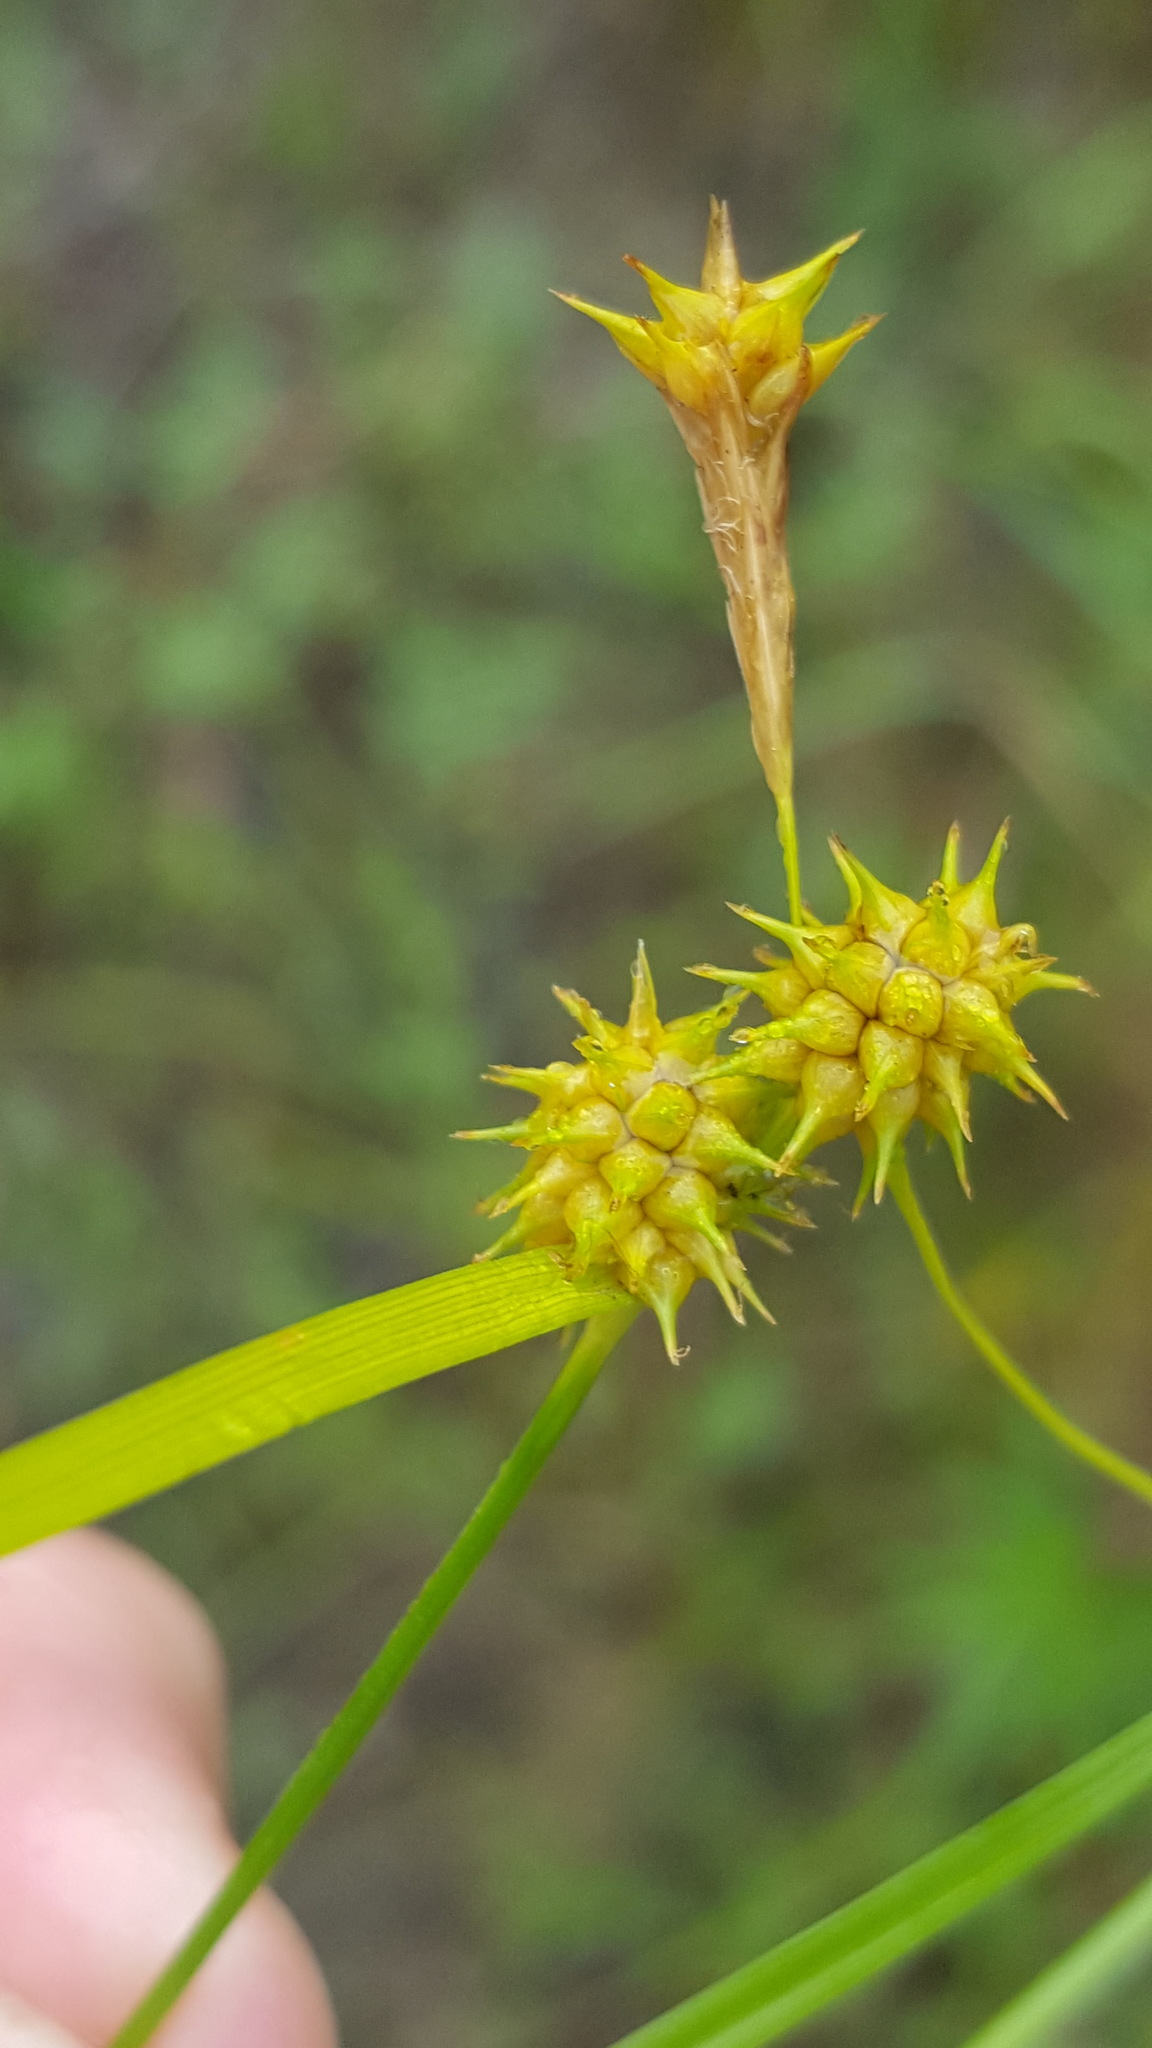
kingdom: Plantae
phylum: Tracheophyta
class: Liliopsida
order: Poales
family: Cyperaceae
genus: Carex
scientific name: Carex cryptolepis
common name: Northeastern sedge
